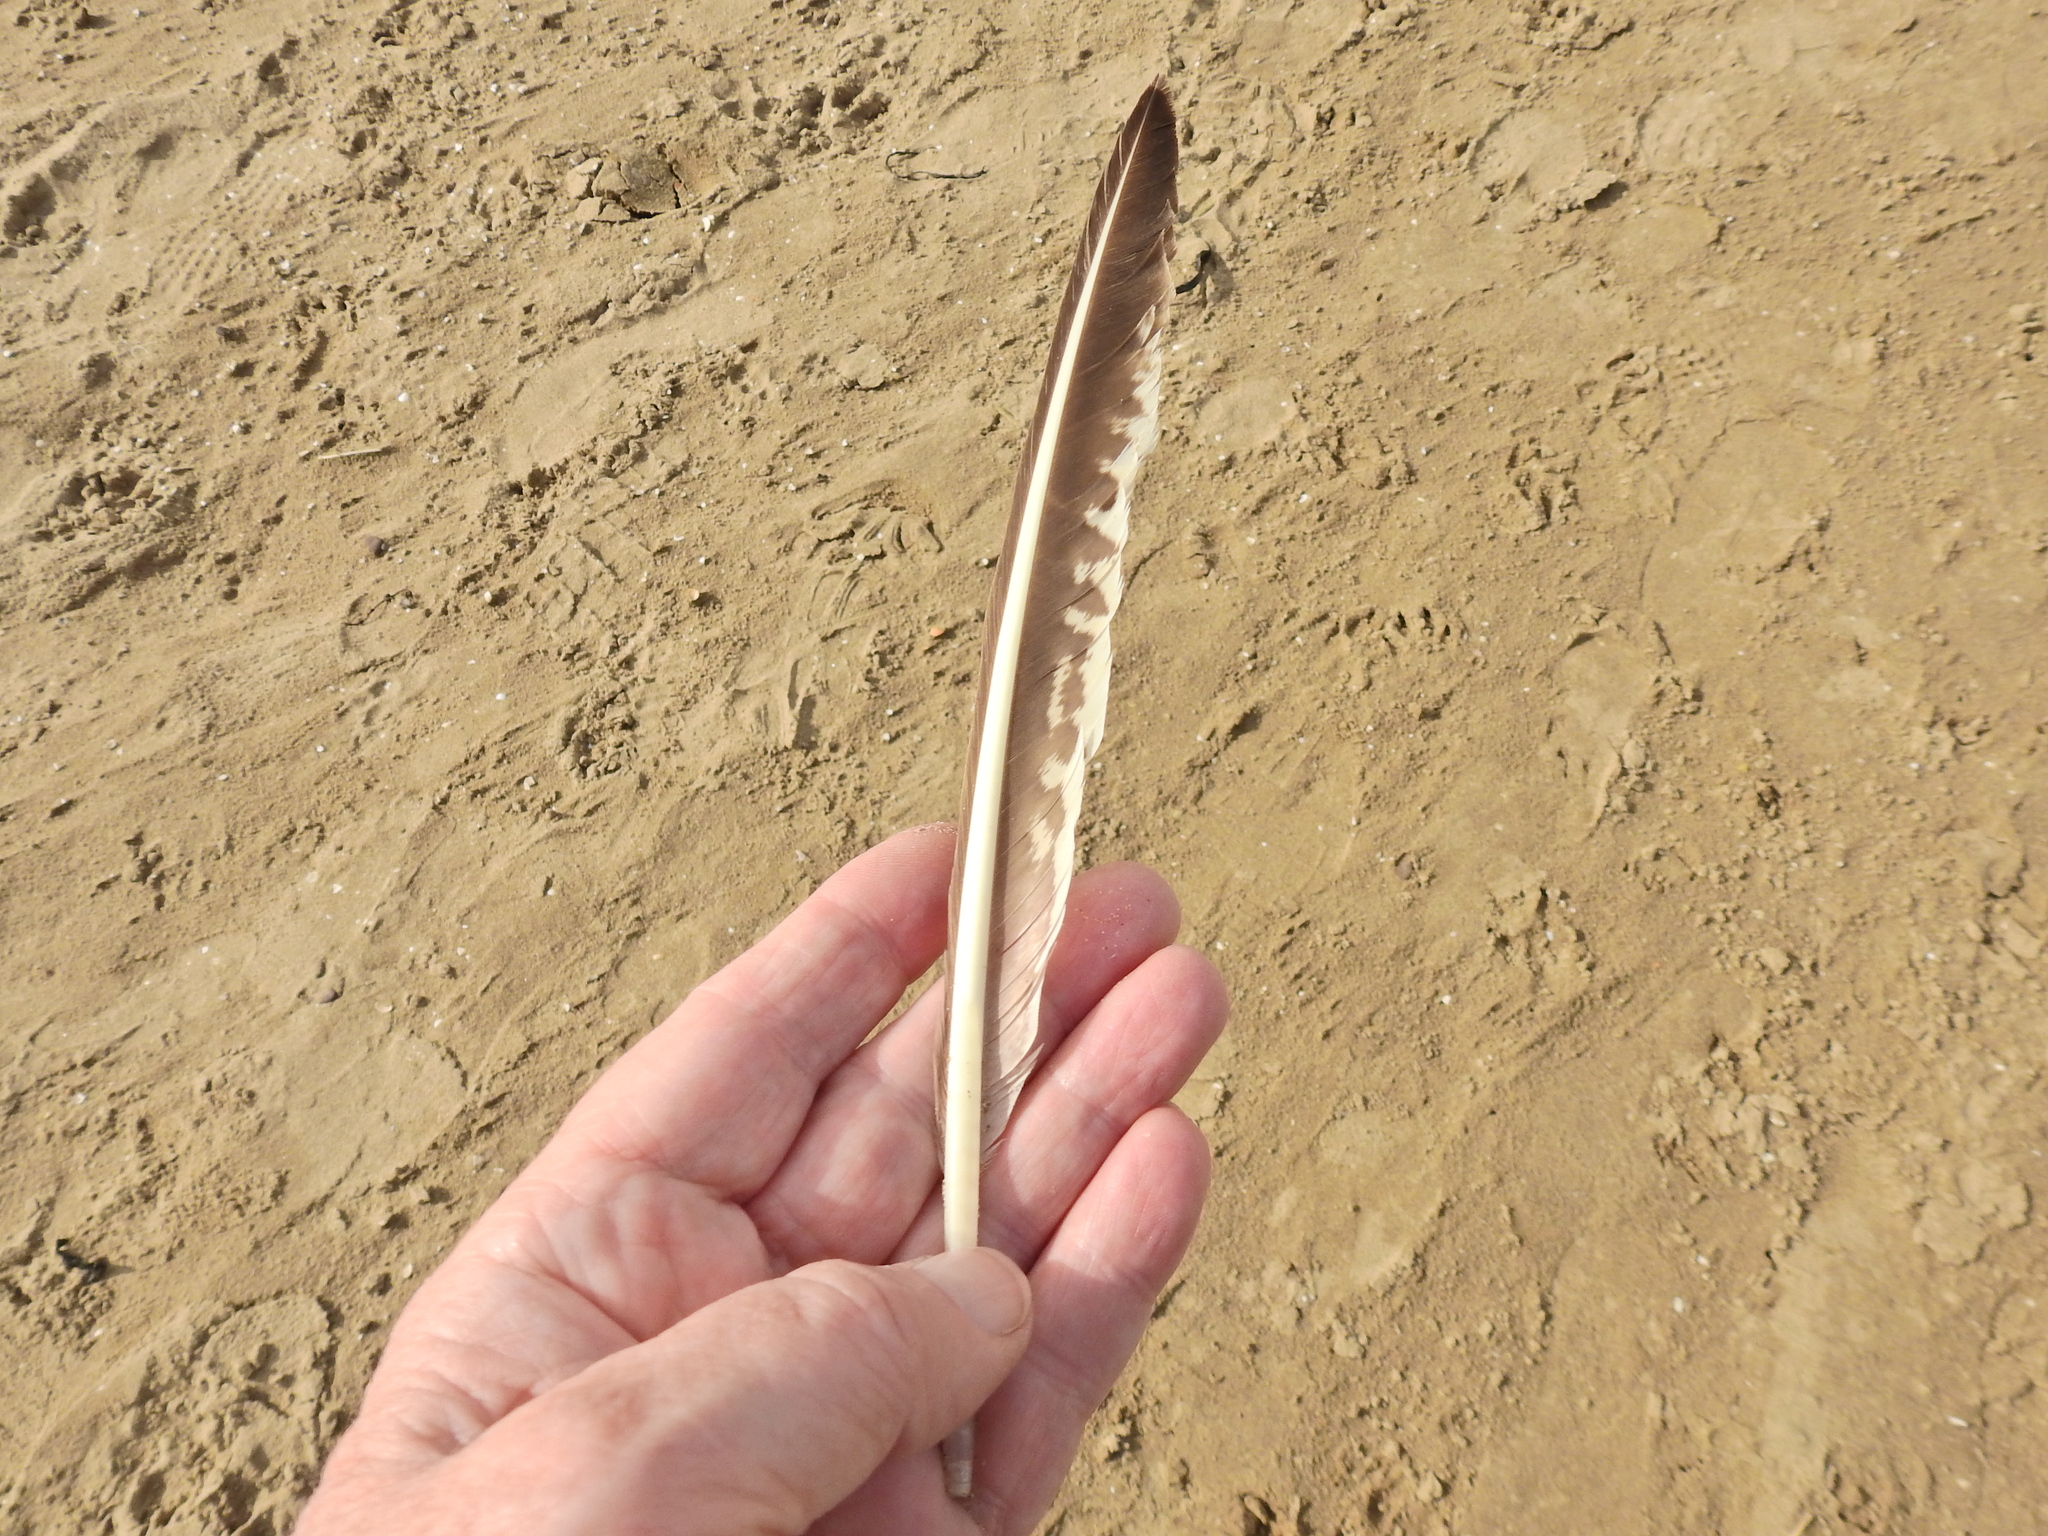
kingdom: Animalia
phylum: Chordata
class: Aves
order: Charadriiformes
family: Scolopacidae
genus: Numenius
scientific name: Numenius arquata
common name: Eurasian curlew
